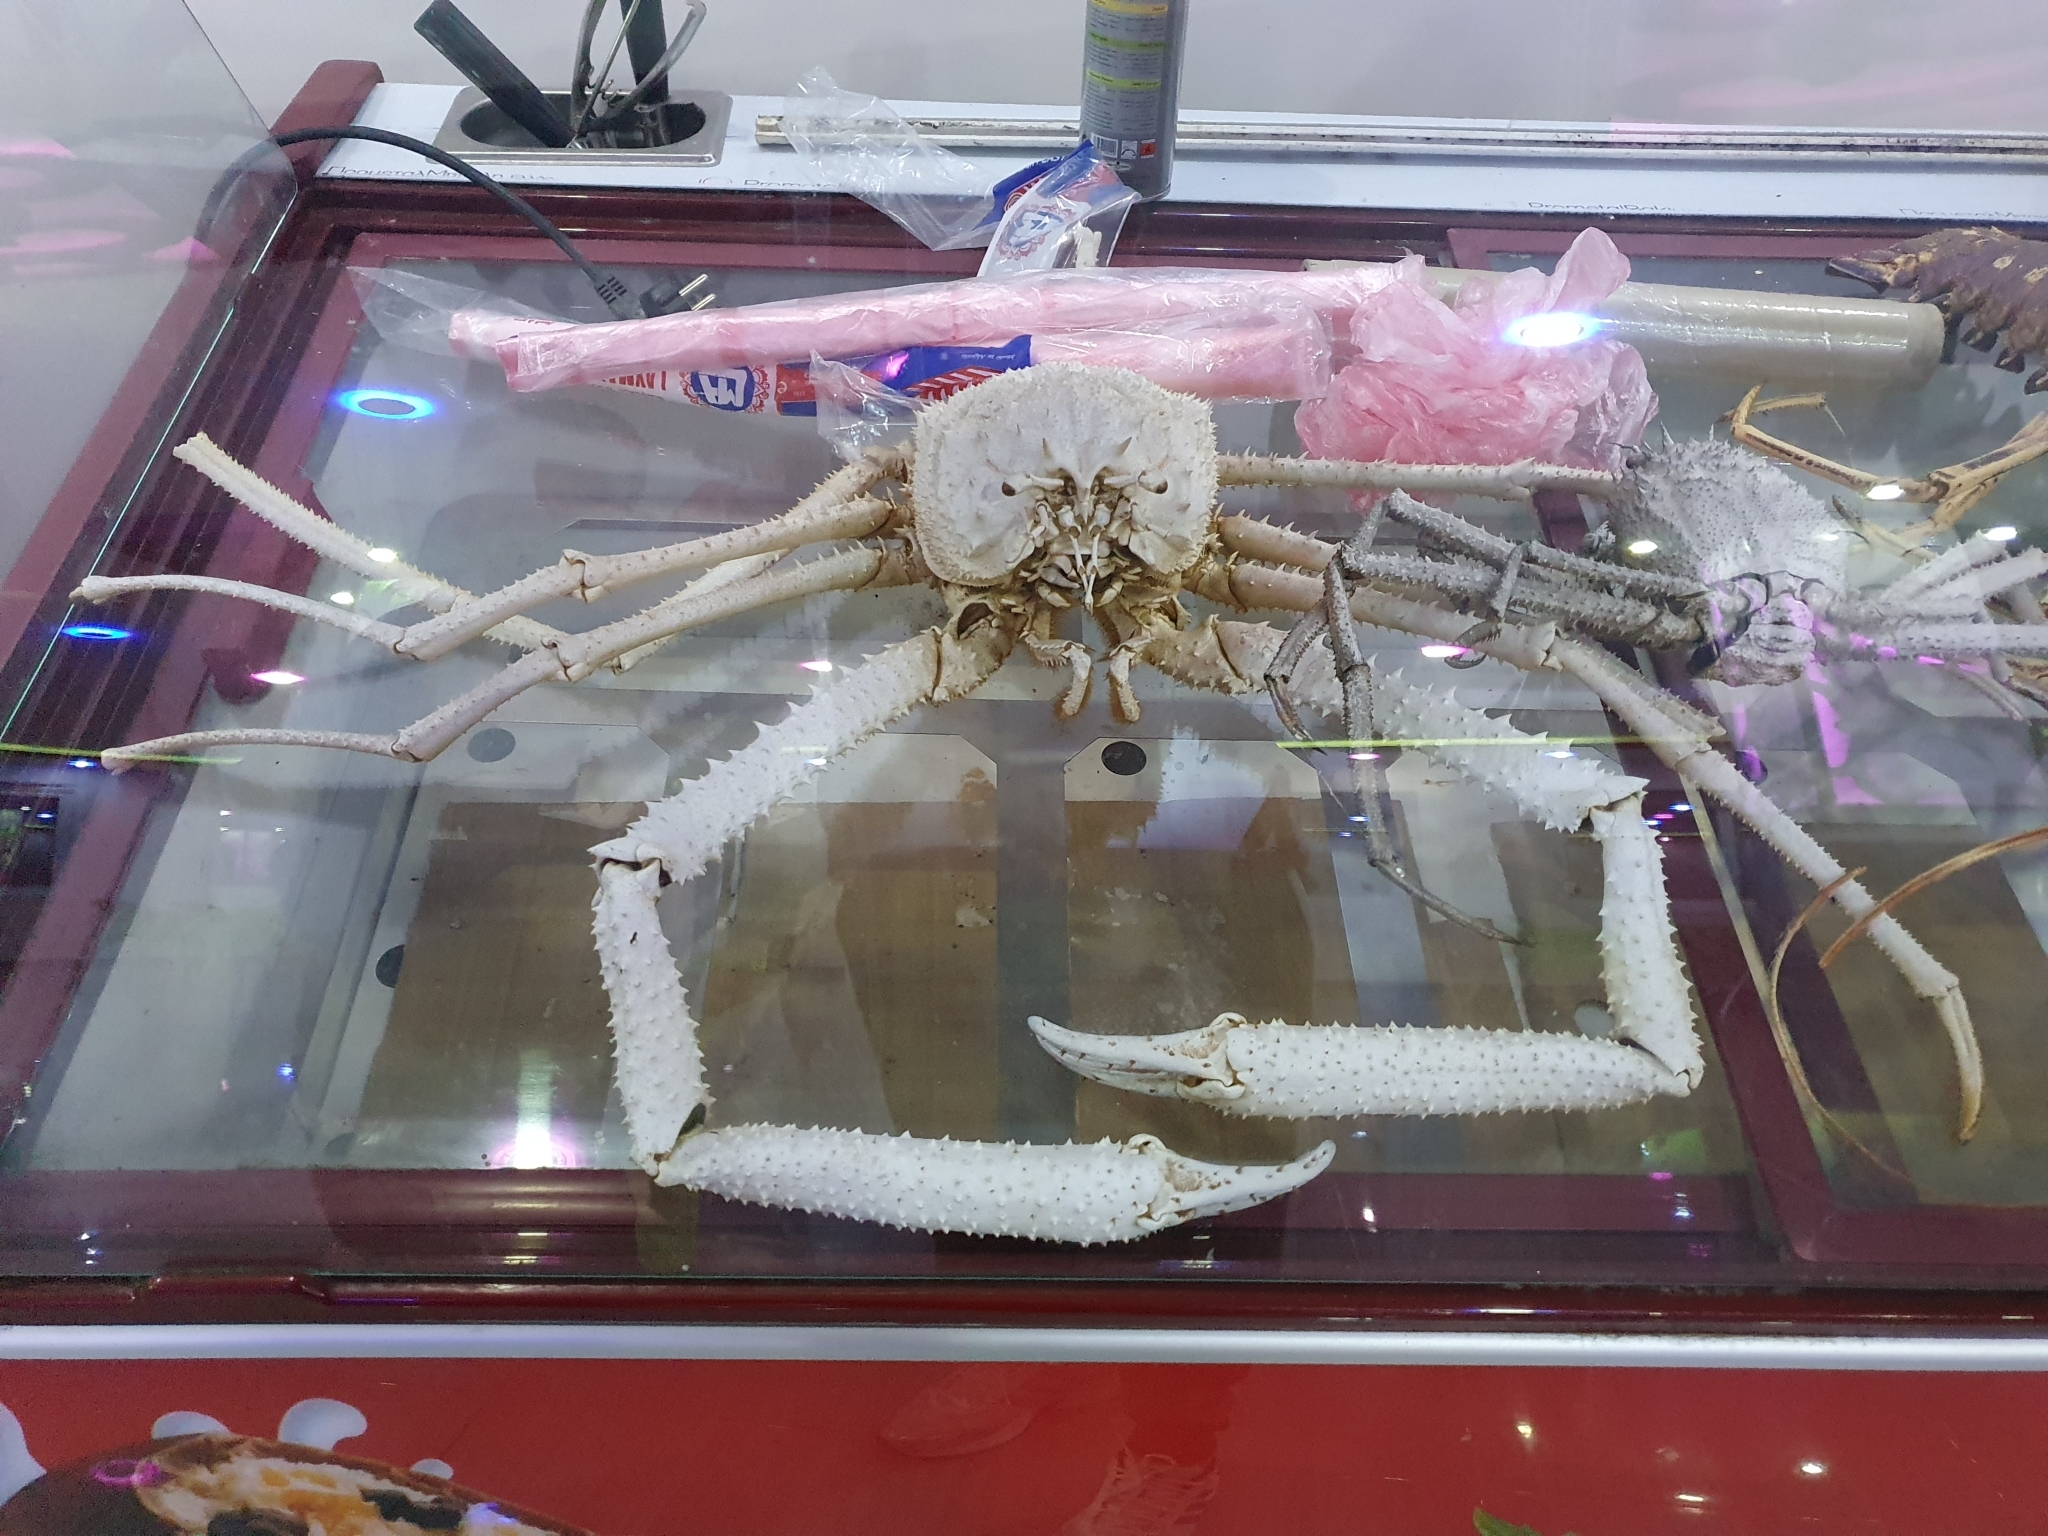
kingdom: Animalia
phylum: Arthropoda
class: Malacostraca
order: Decapoda
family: Homolidae
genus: Paromola
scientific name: Paromola cuvieri
